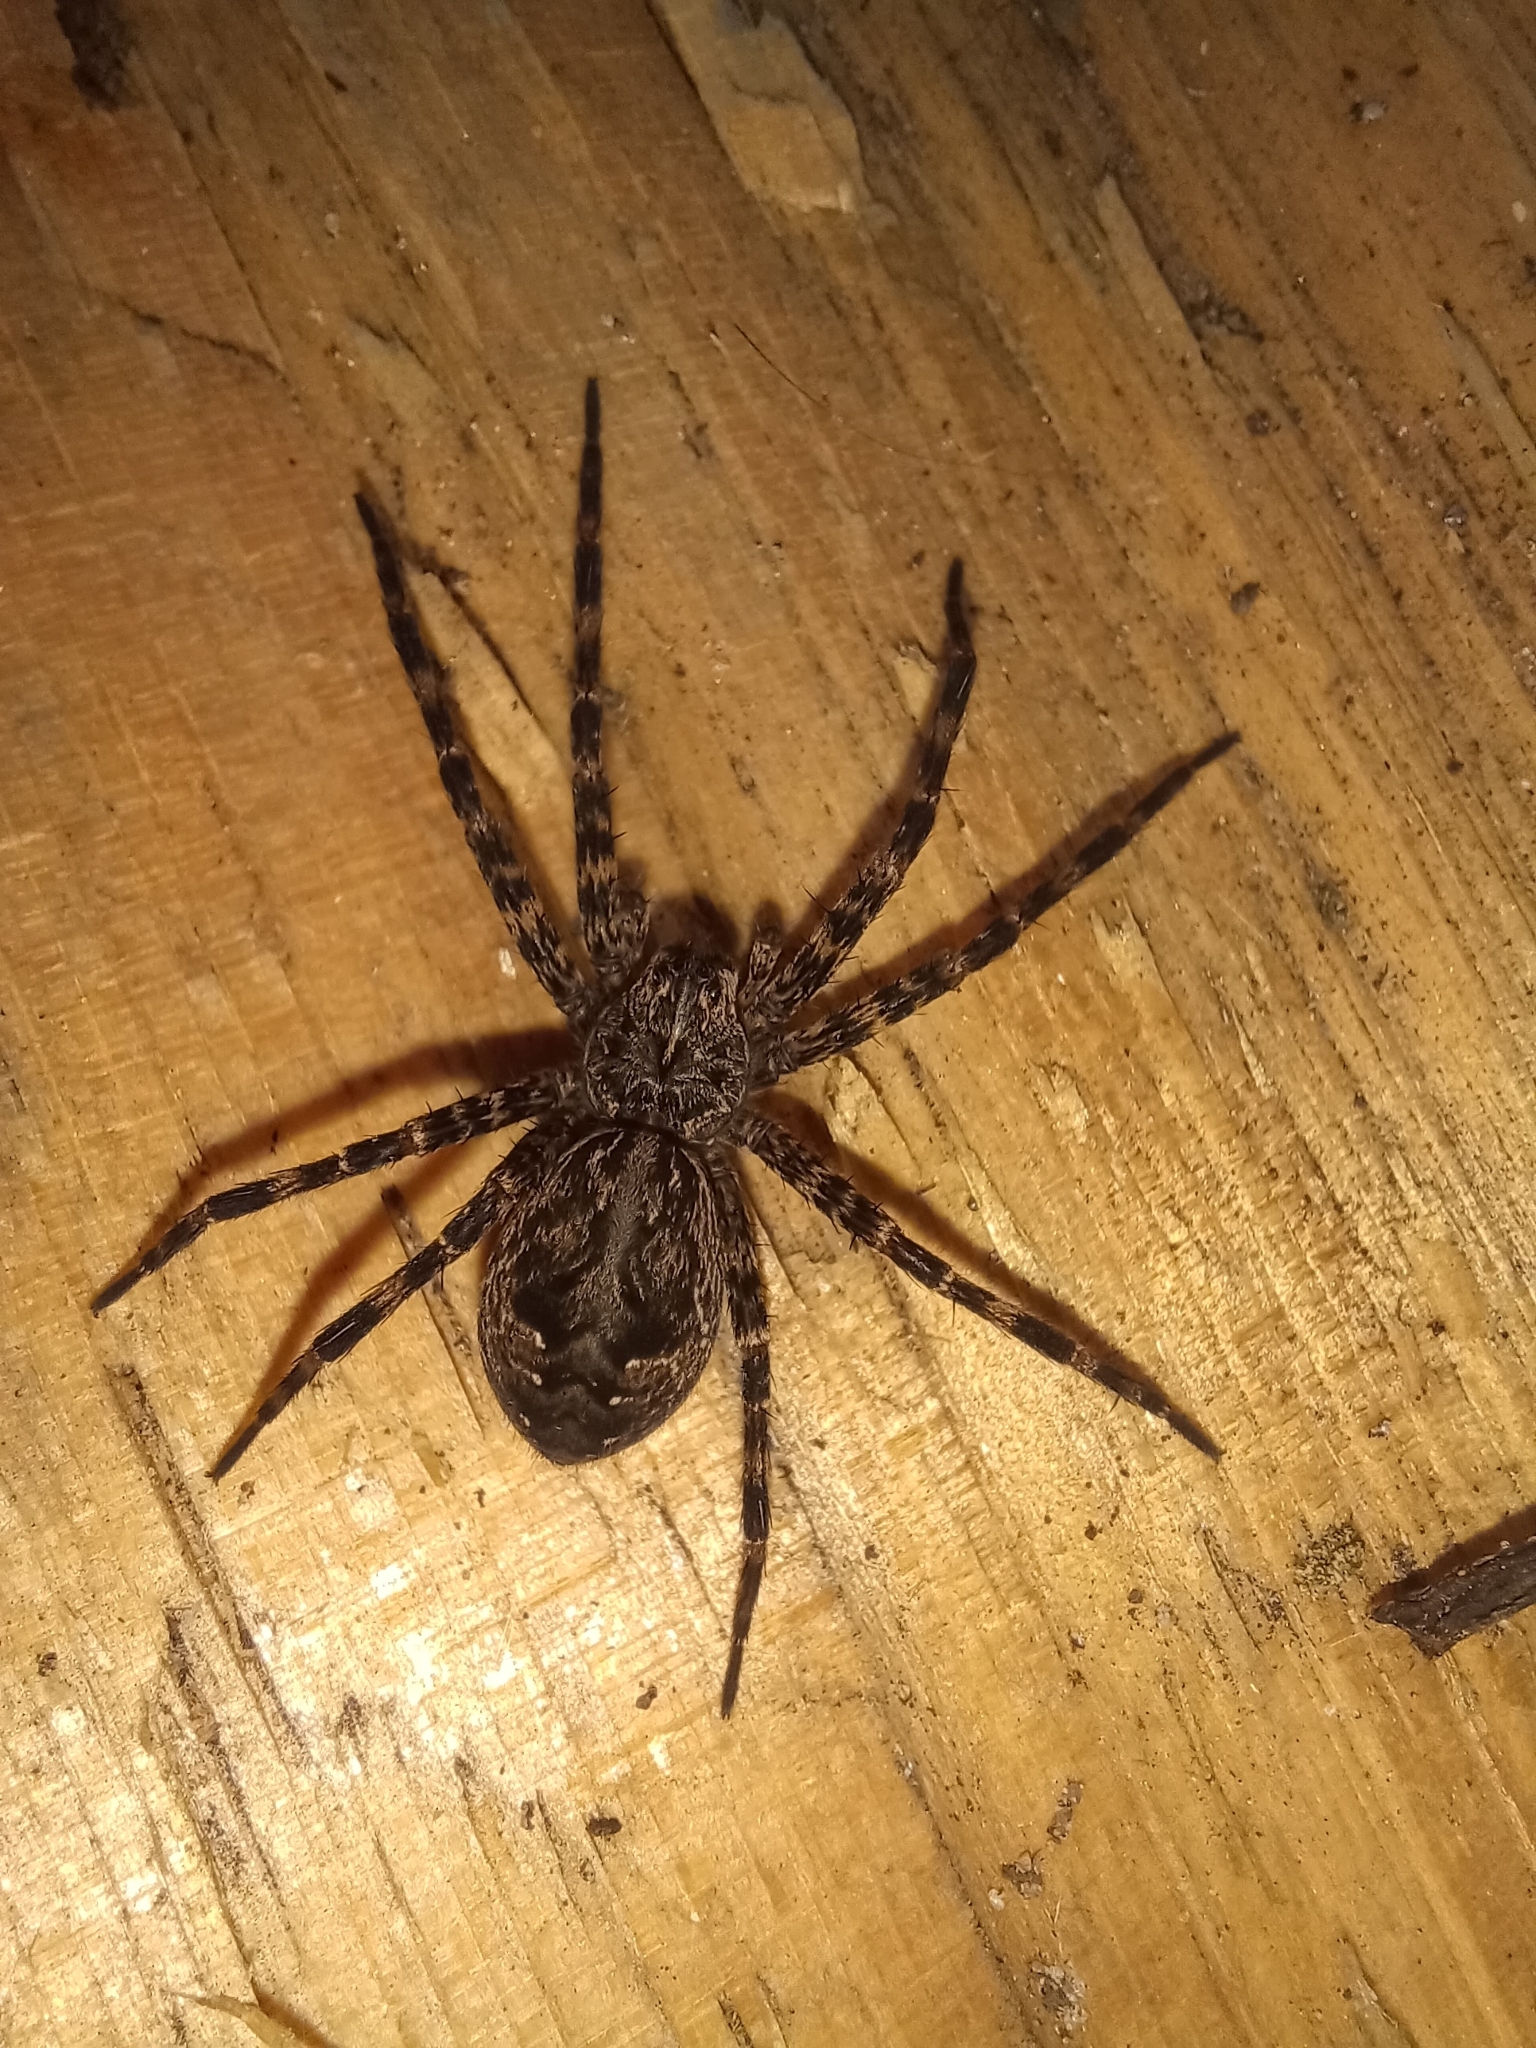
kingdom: Animalia
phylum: Arthropoda
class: Arachnida
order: Araneae
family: Pisauridae
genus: Dolomedes
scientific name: Dolomedes tenebrosus
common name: Dark fishing spider
